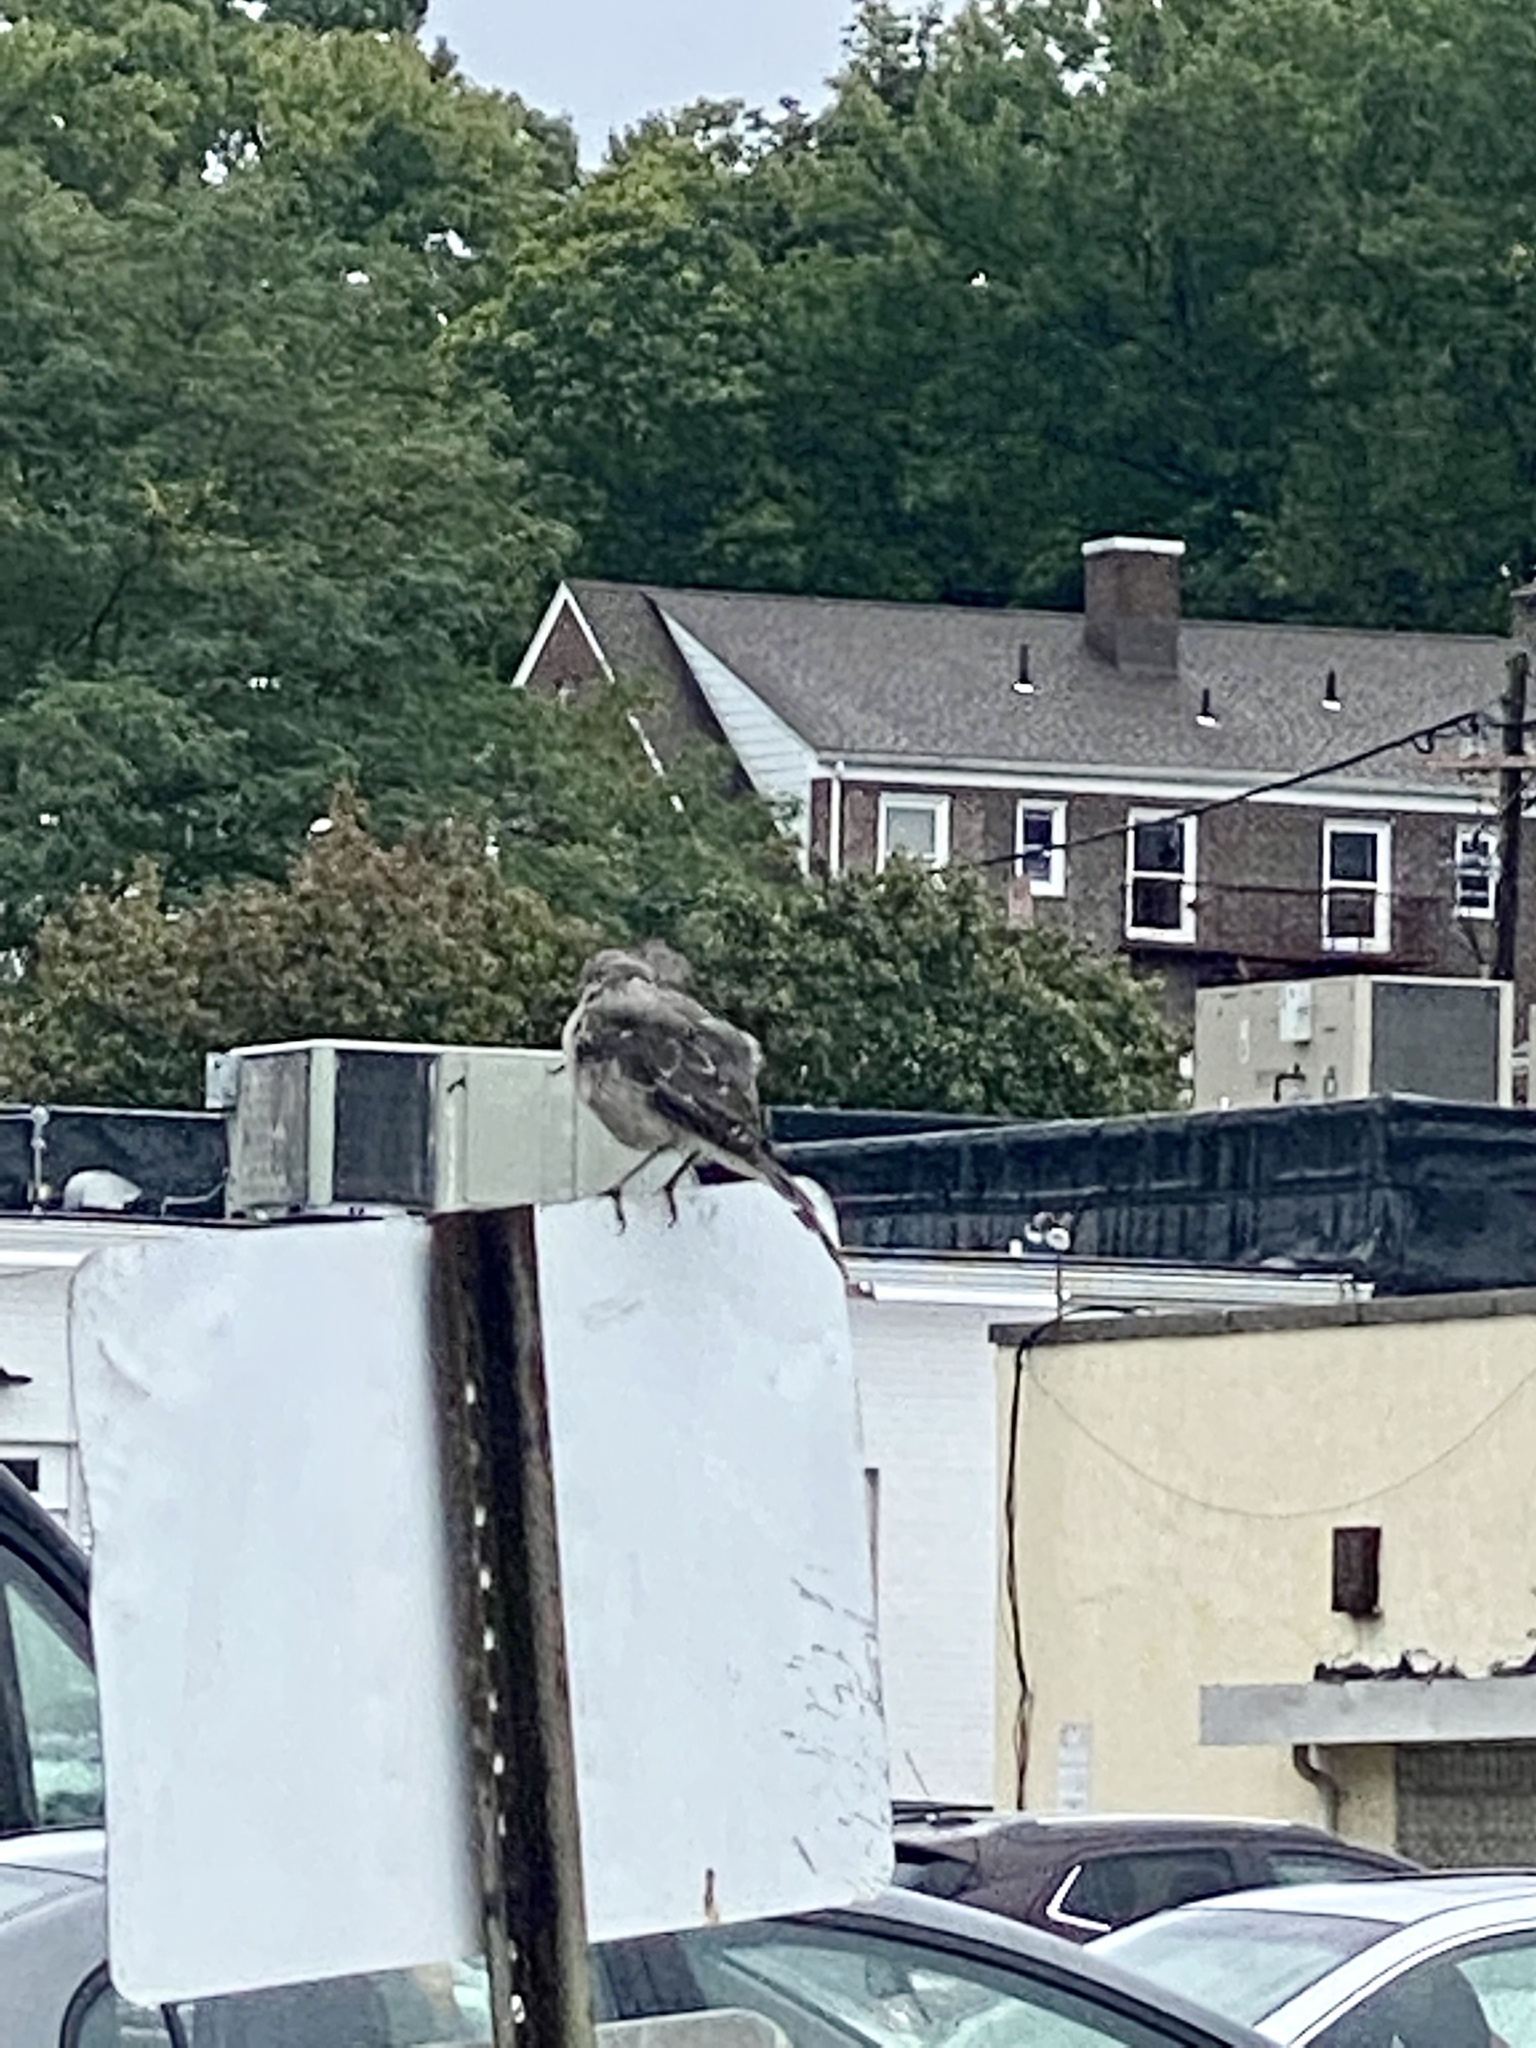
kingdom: Animalia
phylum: Chordata
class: Aves
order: Passeriformes
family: Mimidae
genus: Mimus
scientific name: Mimus polyglottos
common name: Northern mockingbird
